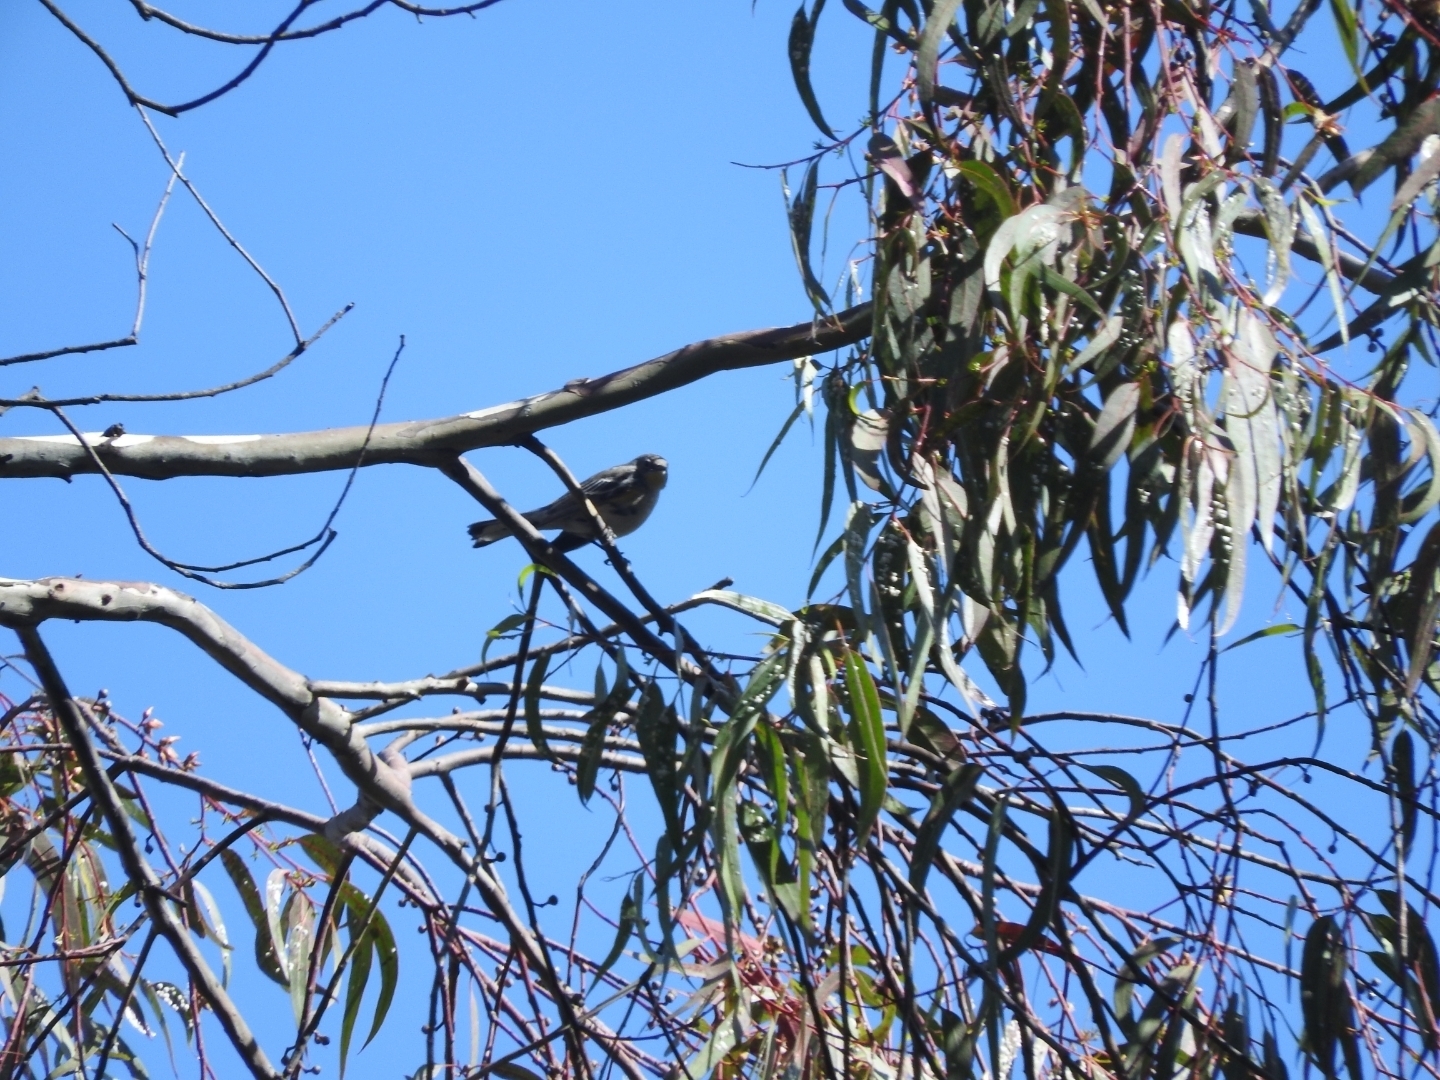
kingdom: Animalia
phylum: Chordata
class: Aves
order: Passeriformes
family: Parulidae
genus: Setophaga
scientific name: Setophaga coronata
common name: Myrtle warbler
